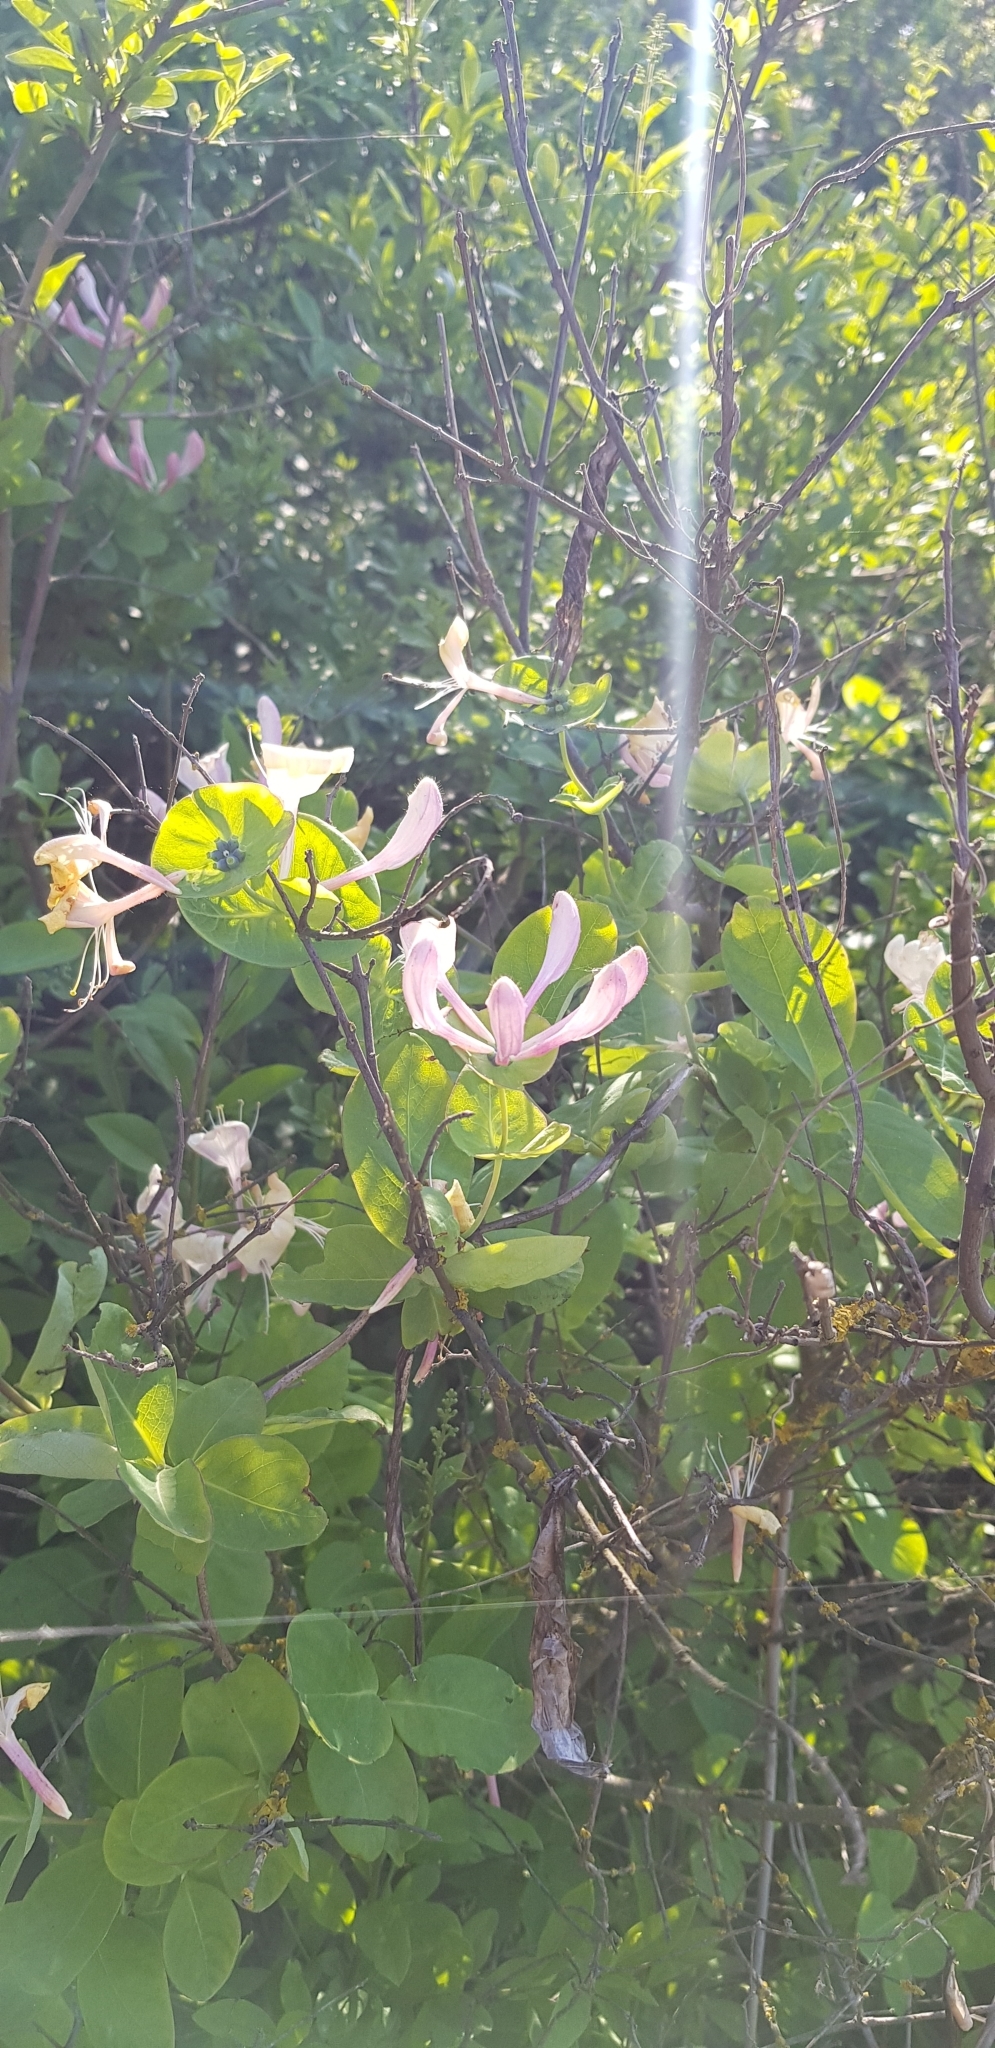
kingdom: Plantae
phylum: Tracheophyta
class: Magnoliopsida
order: Dipsacales
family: Caprifoliaceae
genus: Lonicera
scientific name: Lonicera caprifolium
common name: Perfoliate honeysuckle
